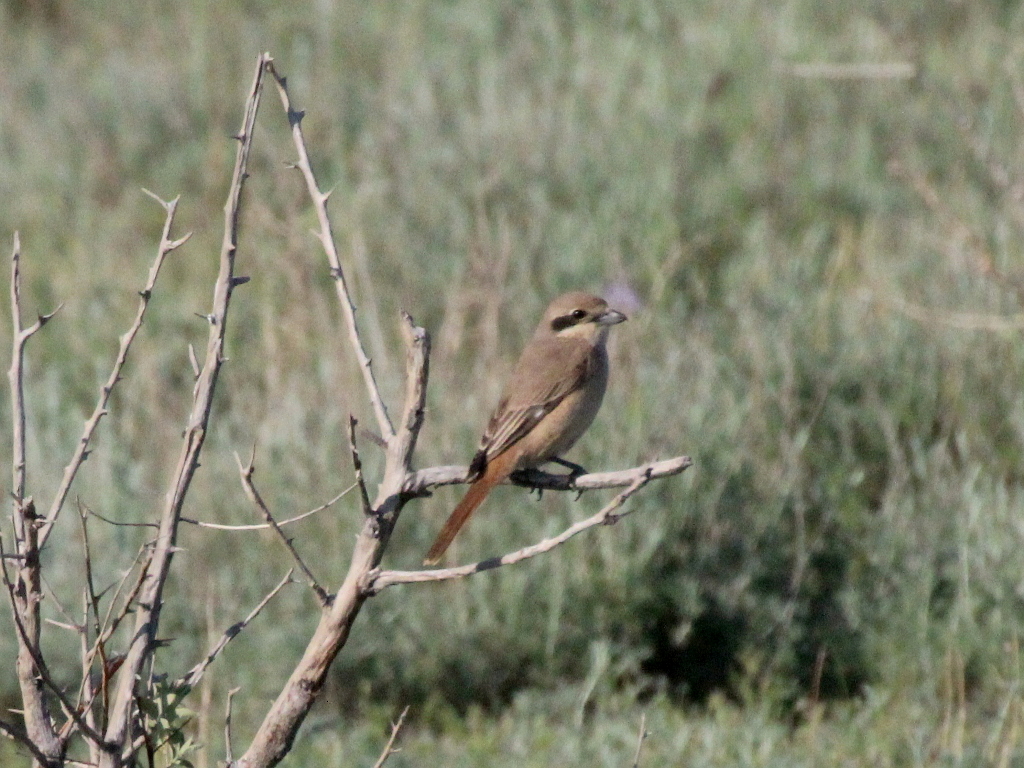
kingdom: Animalia
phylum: Chordata
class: Aves
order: Passeriformes
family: Laniidae
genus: Lanius
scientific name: Lanius phoenicuroides
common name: Red-tailed shrike
